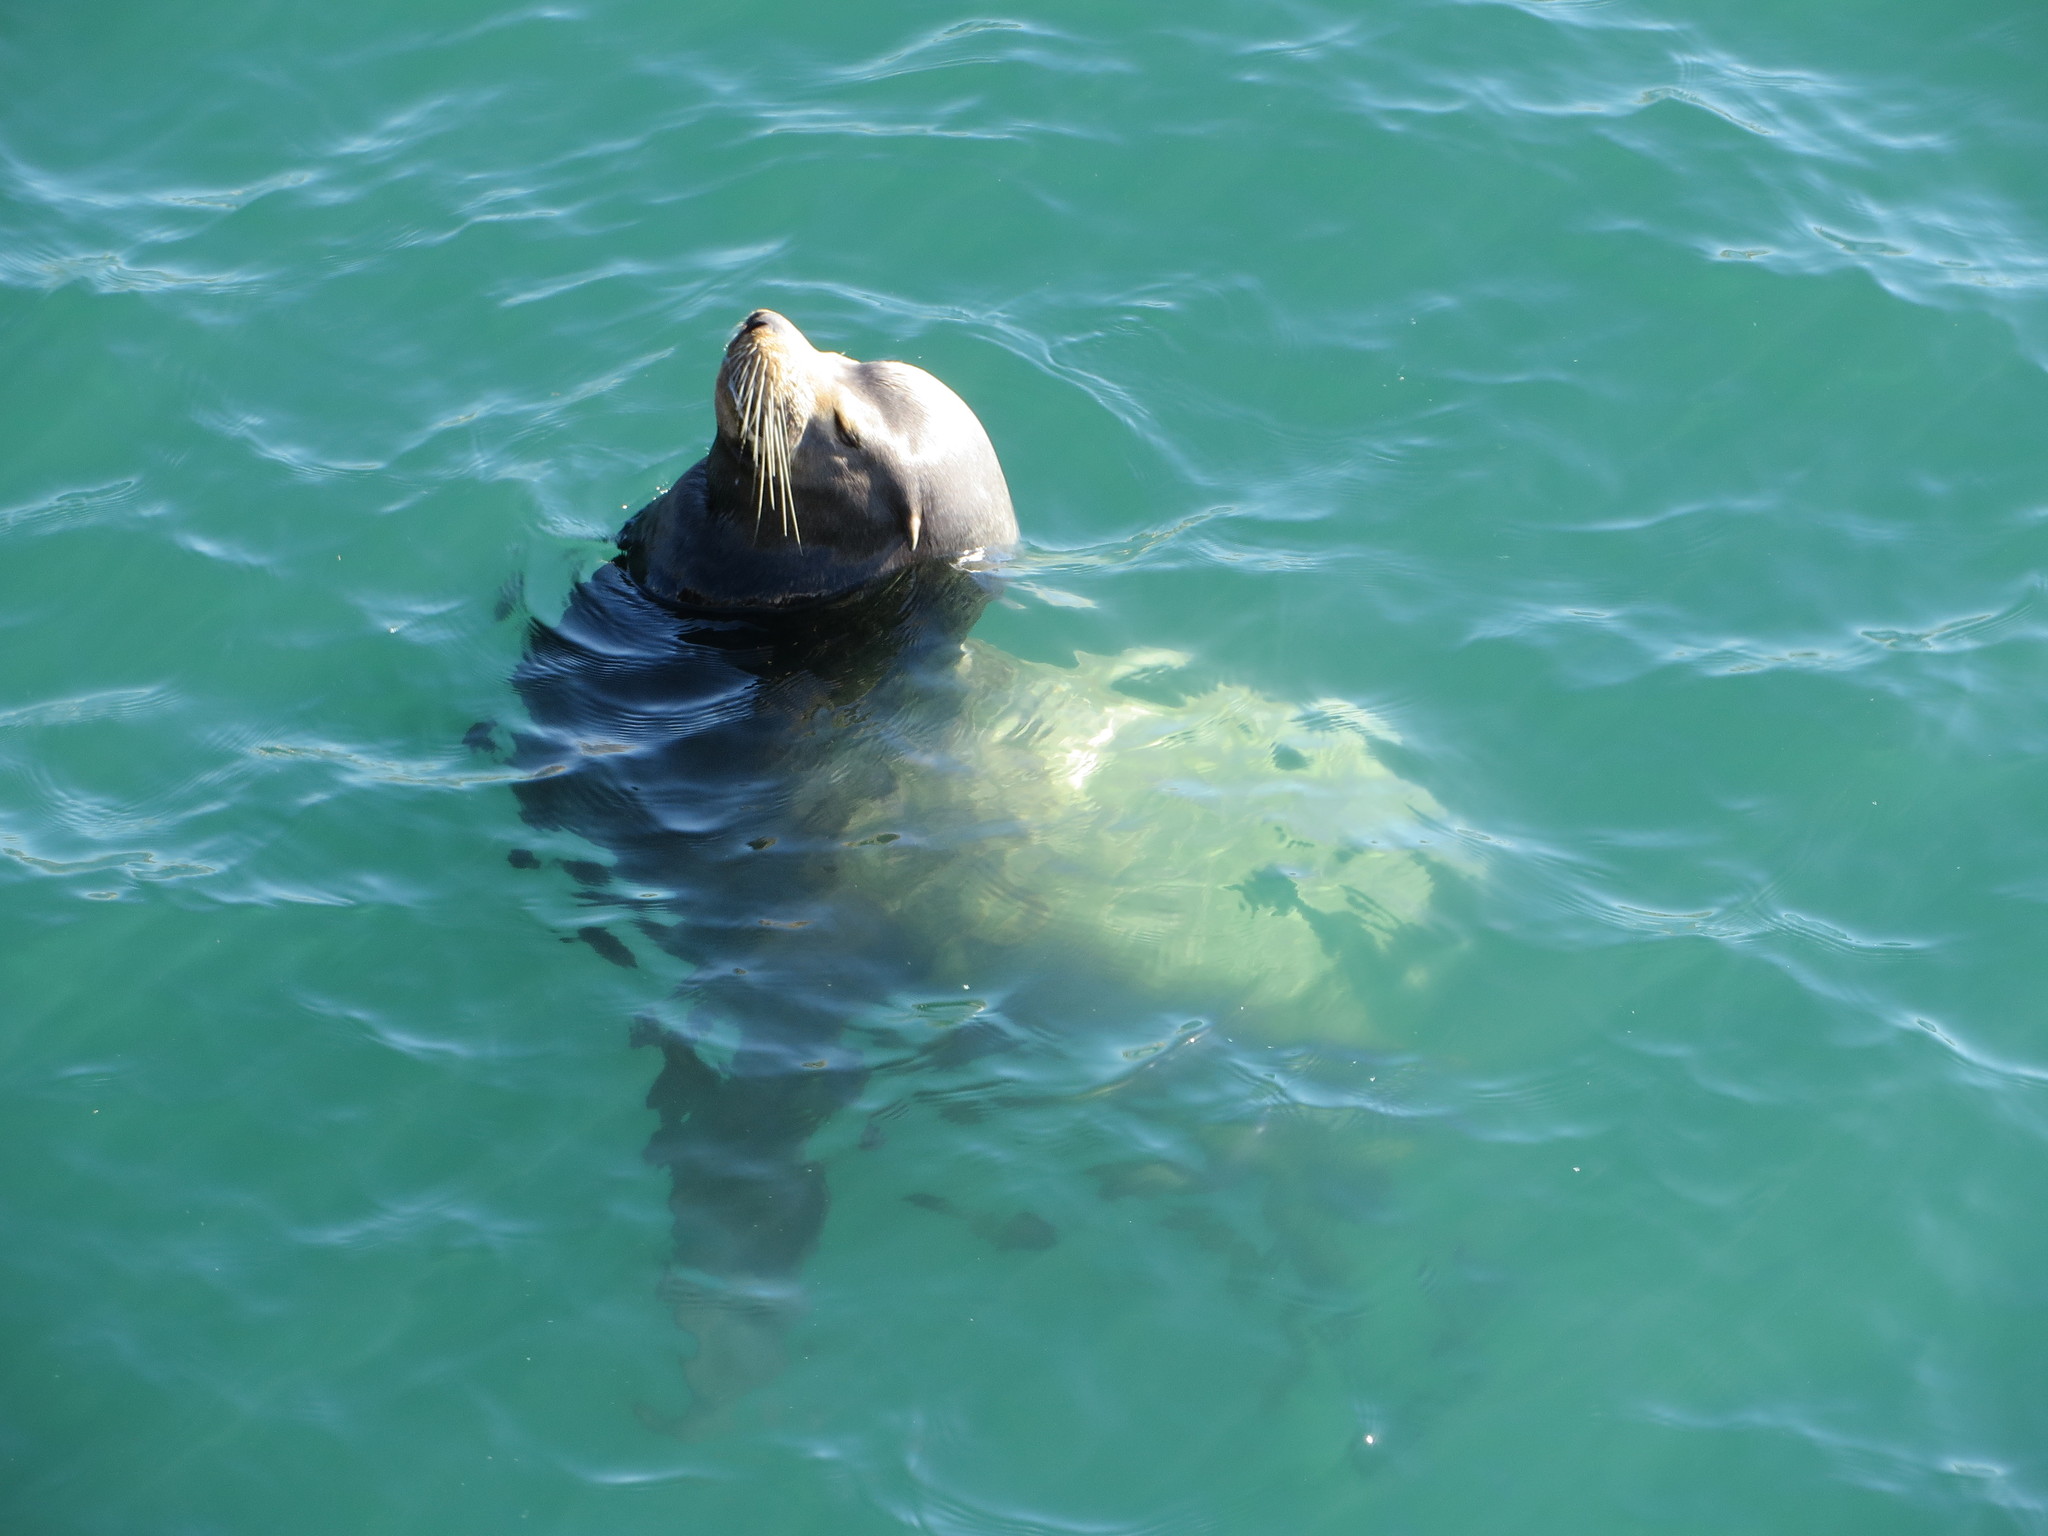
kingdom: Animalia
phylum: Chordata
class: Mammalia
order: Carnivora
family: Otariidae
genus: Zalophus
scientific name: Zalophus californianus
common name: California sea lion
